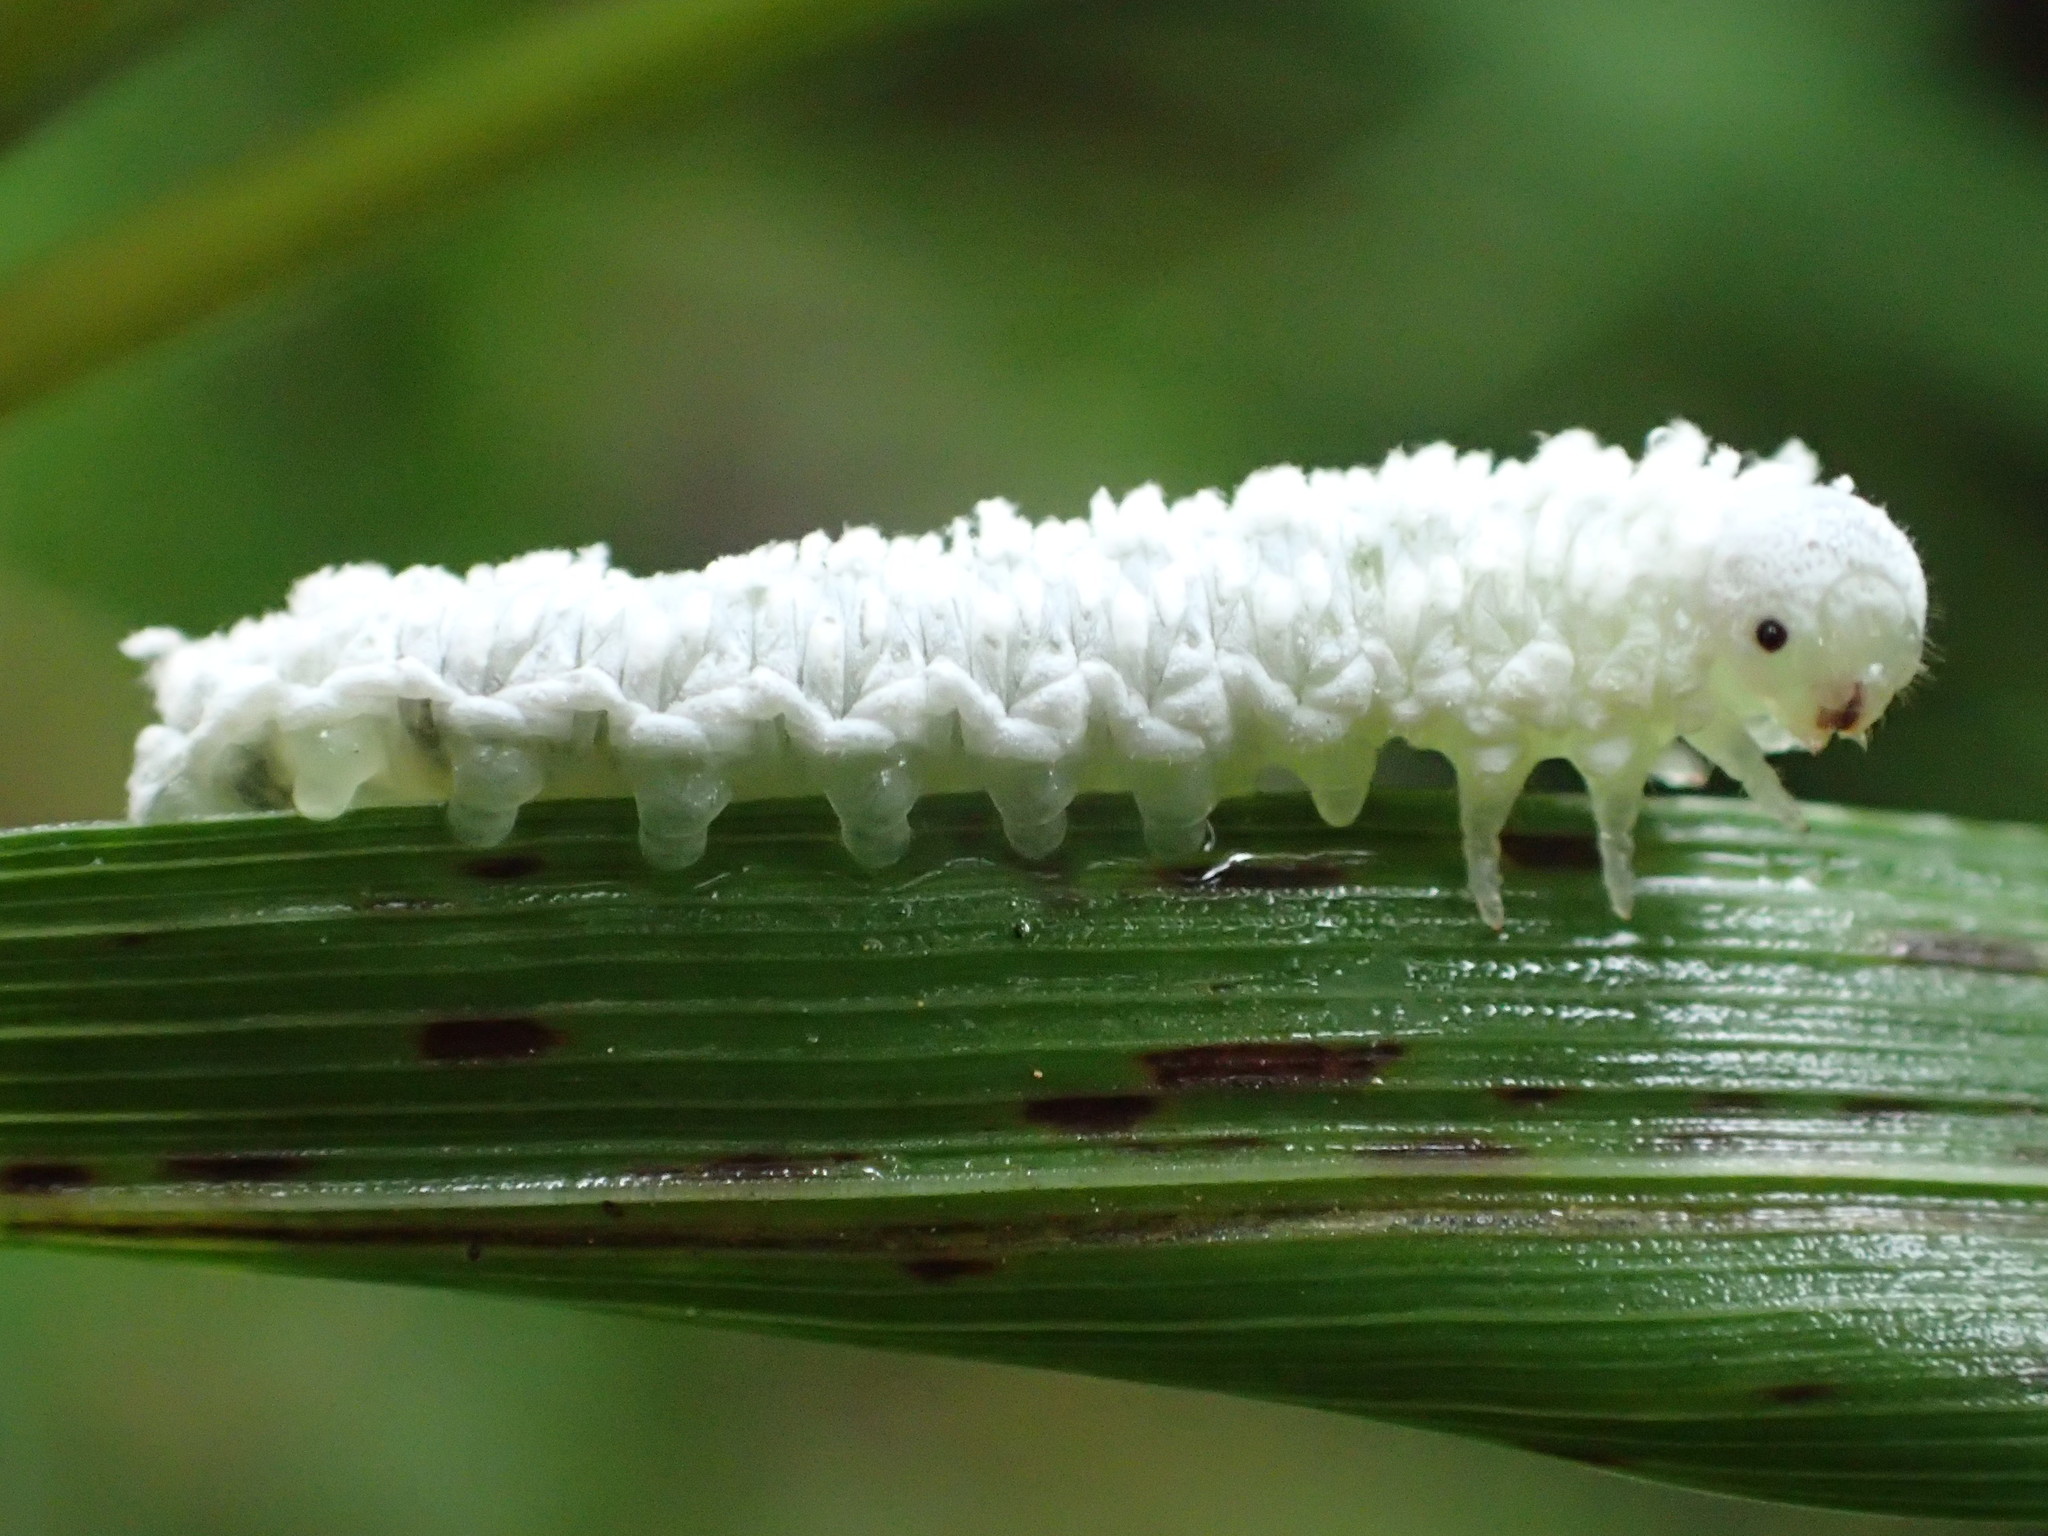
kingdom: Animalia
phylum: Arthropoda
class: Insecta
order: Hymenoptera
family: Tenthredinidae
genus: Eriocampa
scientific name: Eriocampa ovata
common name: Alder wooly sawfly
